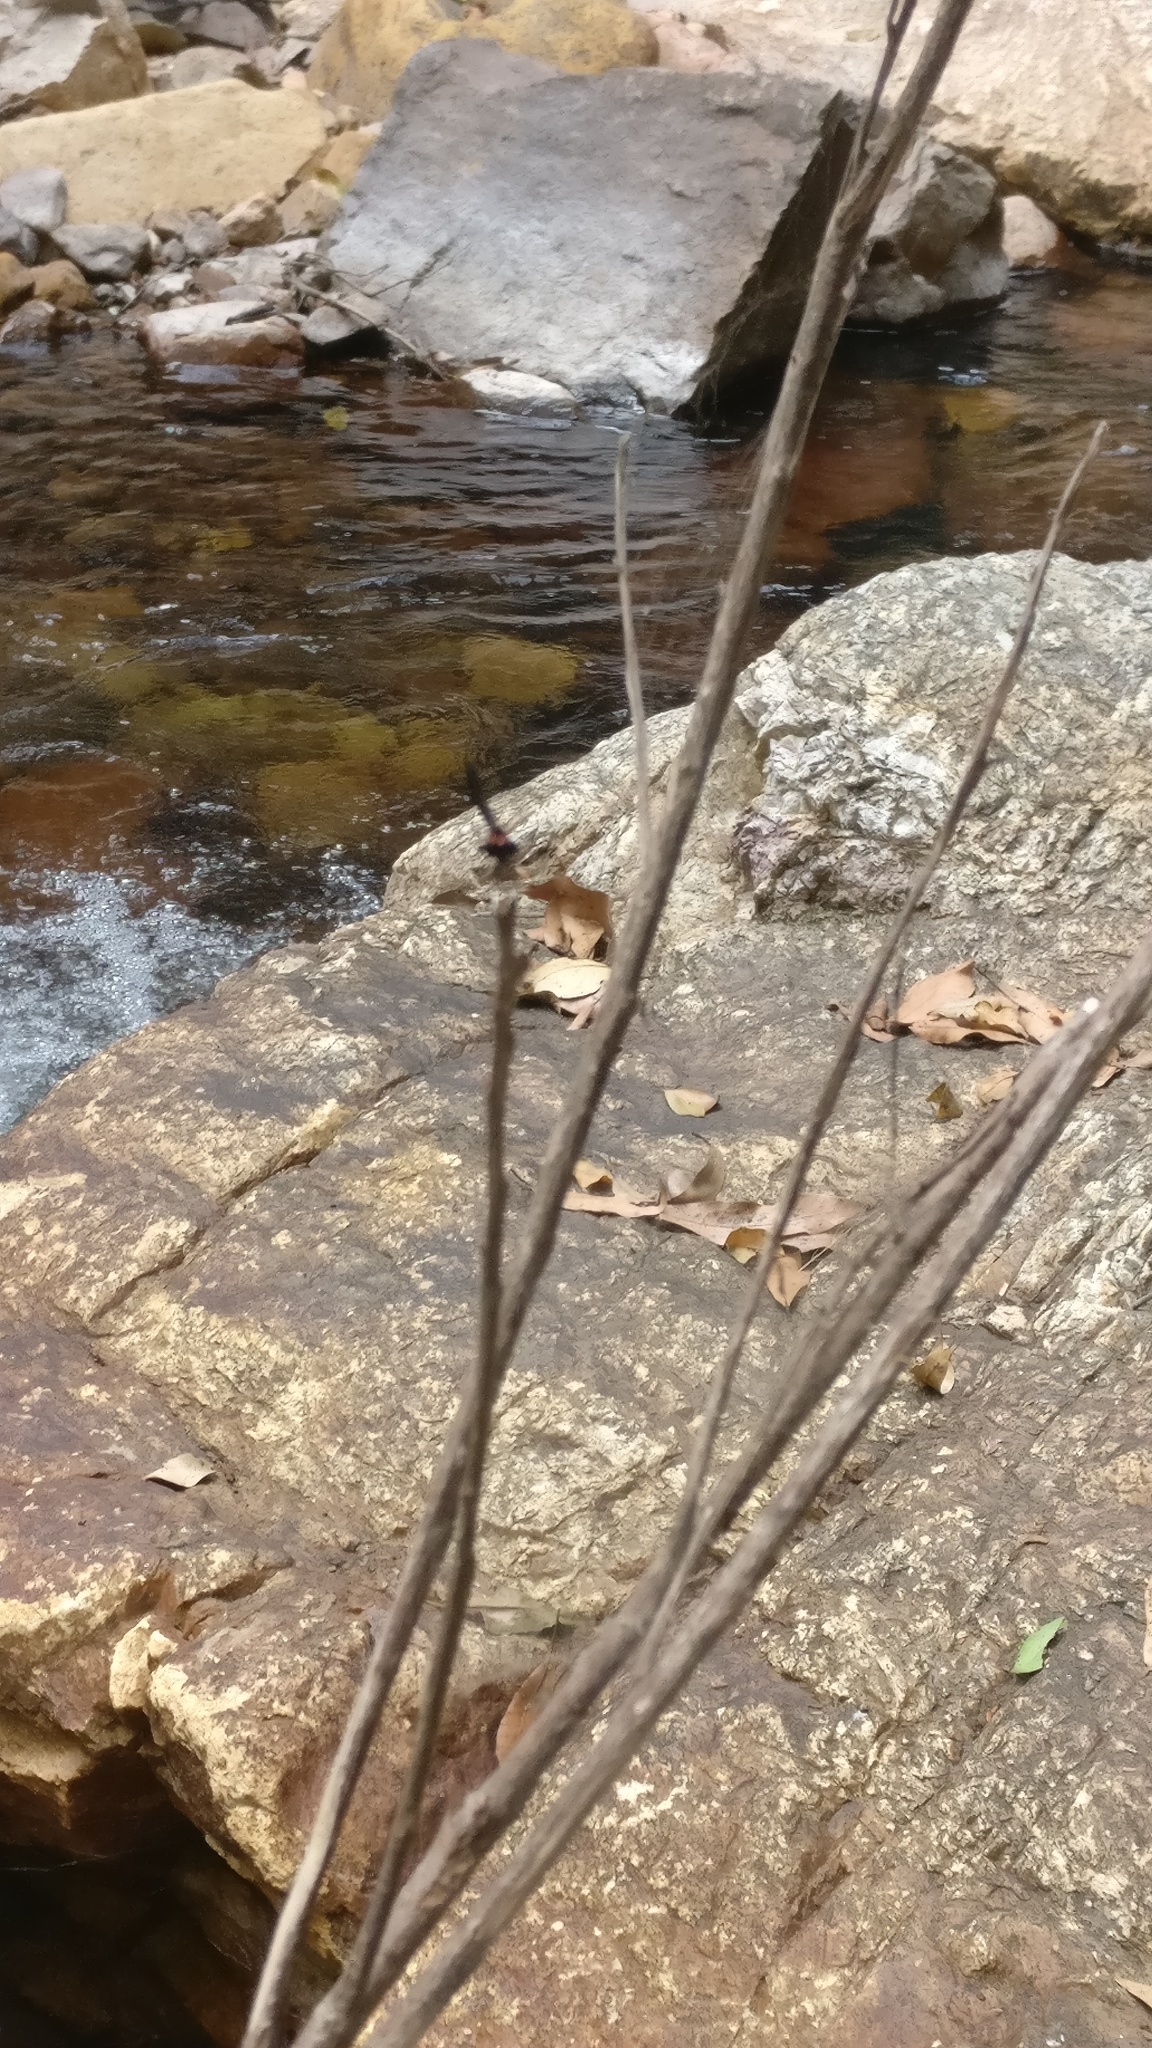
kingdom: Animalia
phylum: Arthropoda
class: Insecta
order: Odonata
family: Chlorocyphidae
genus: Heliocypha
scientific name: Heliocypha bisignata
